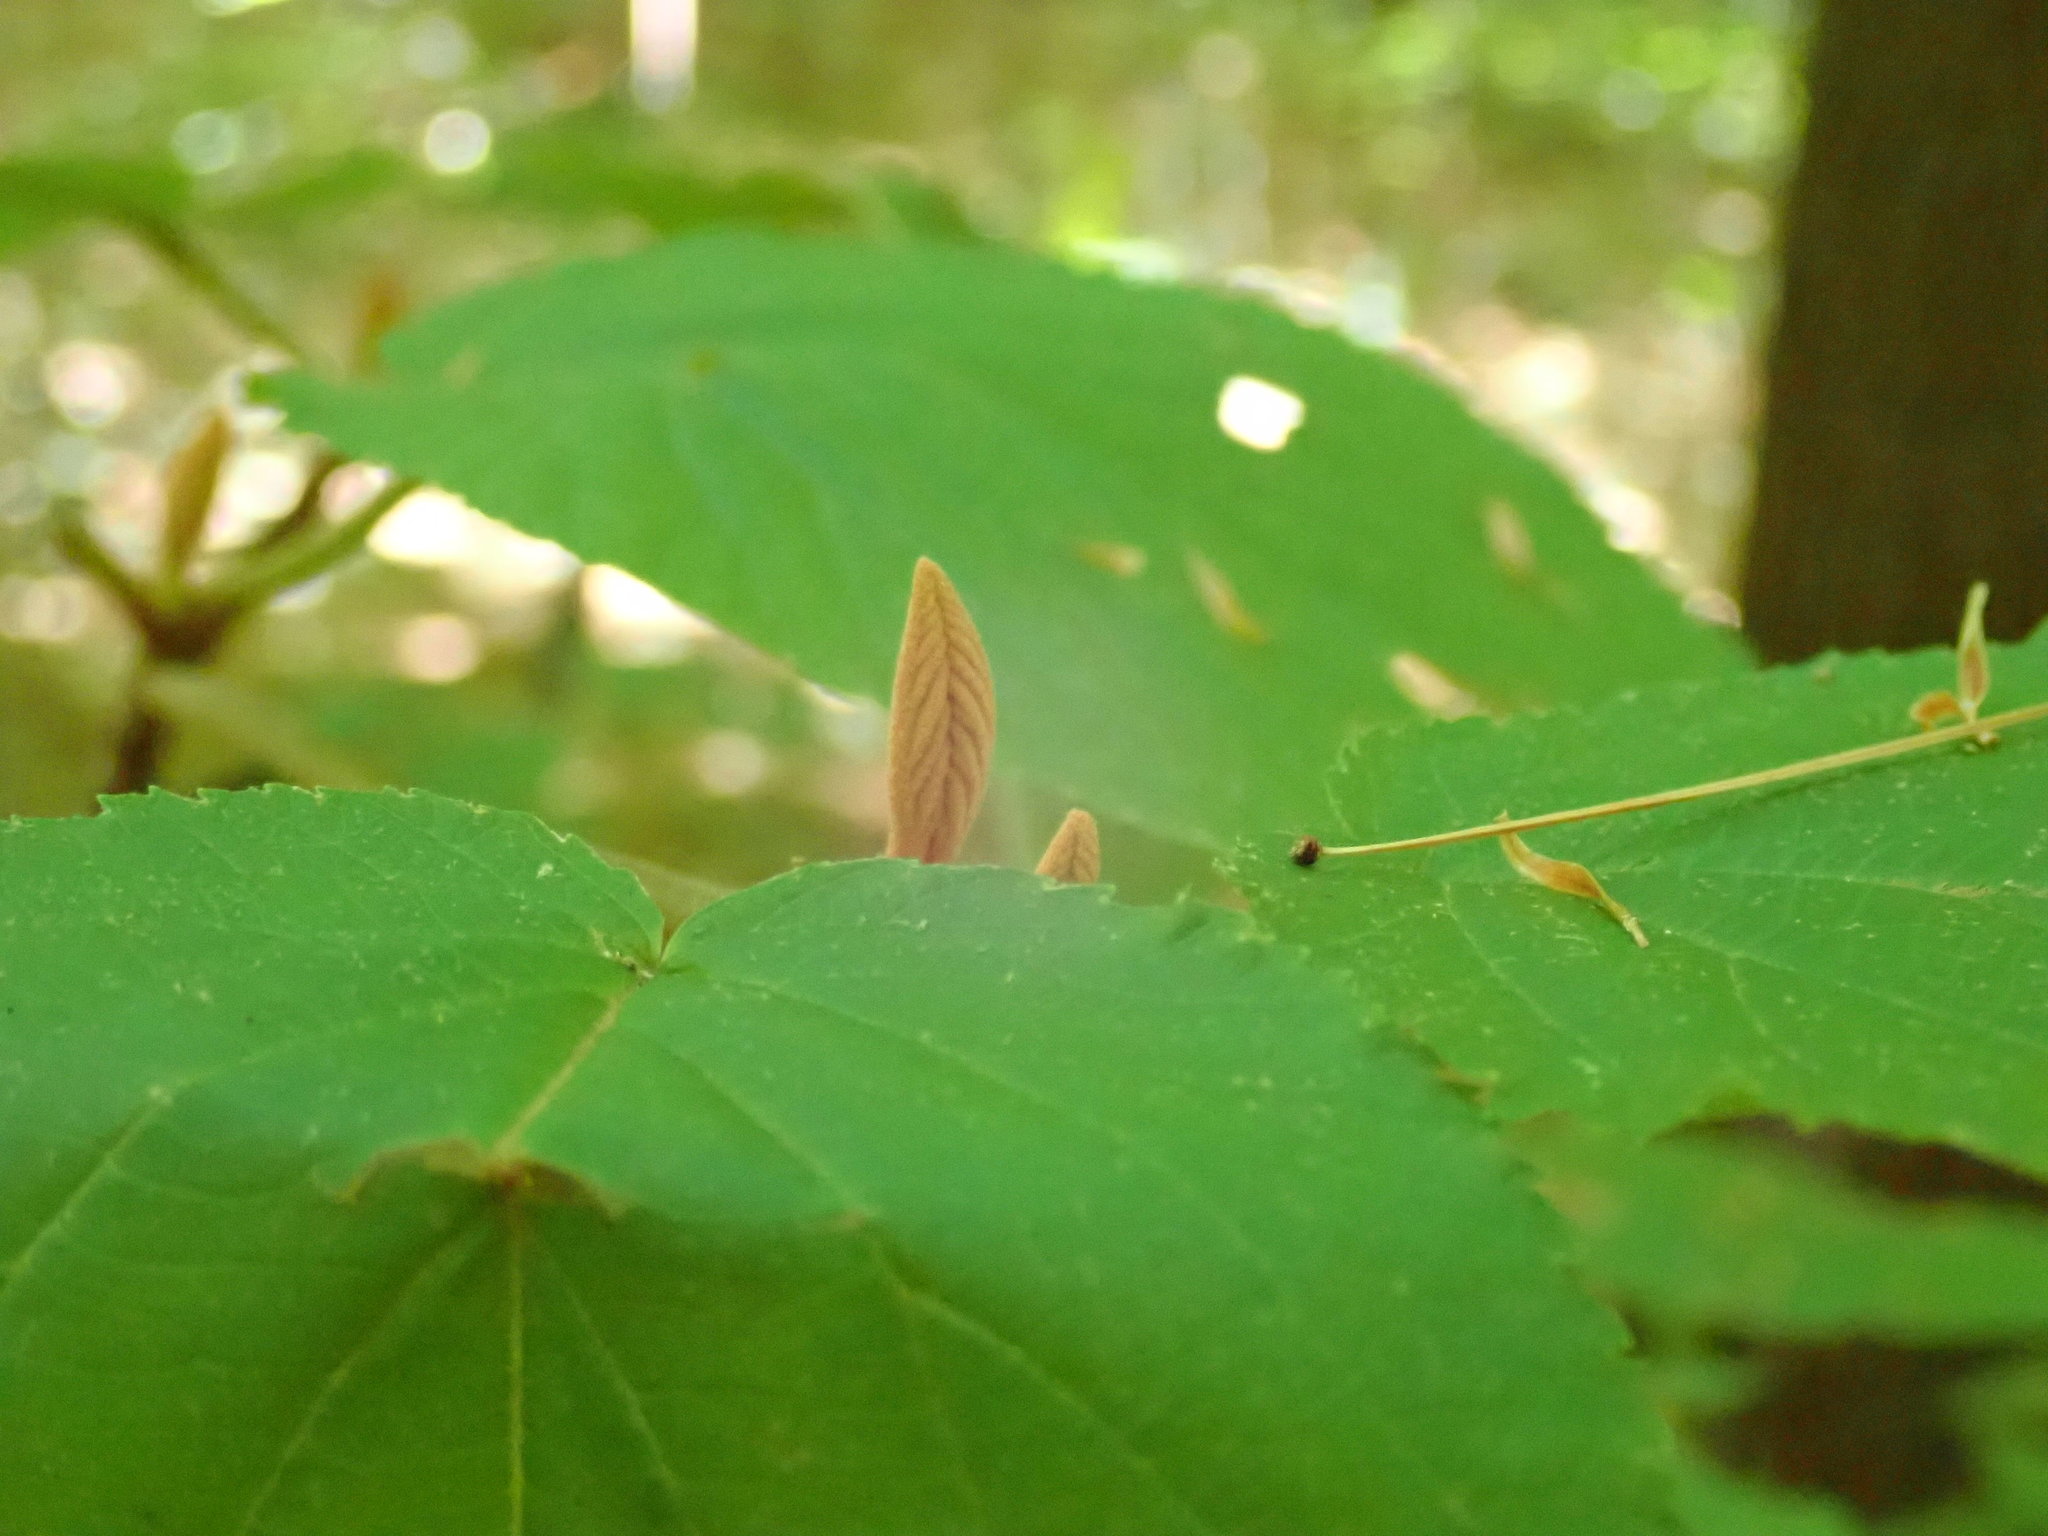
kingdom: Plantae
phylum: Tracheophyta
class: Magnoliopsida
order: Dipsacales
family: Viburnaceae
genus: Viburnum
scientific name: Viburnum lantanoides
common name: Hobblebush
